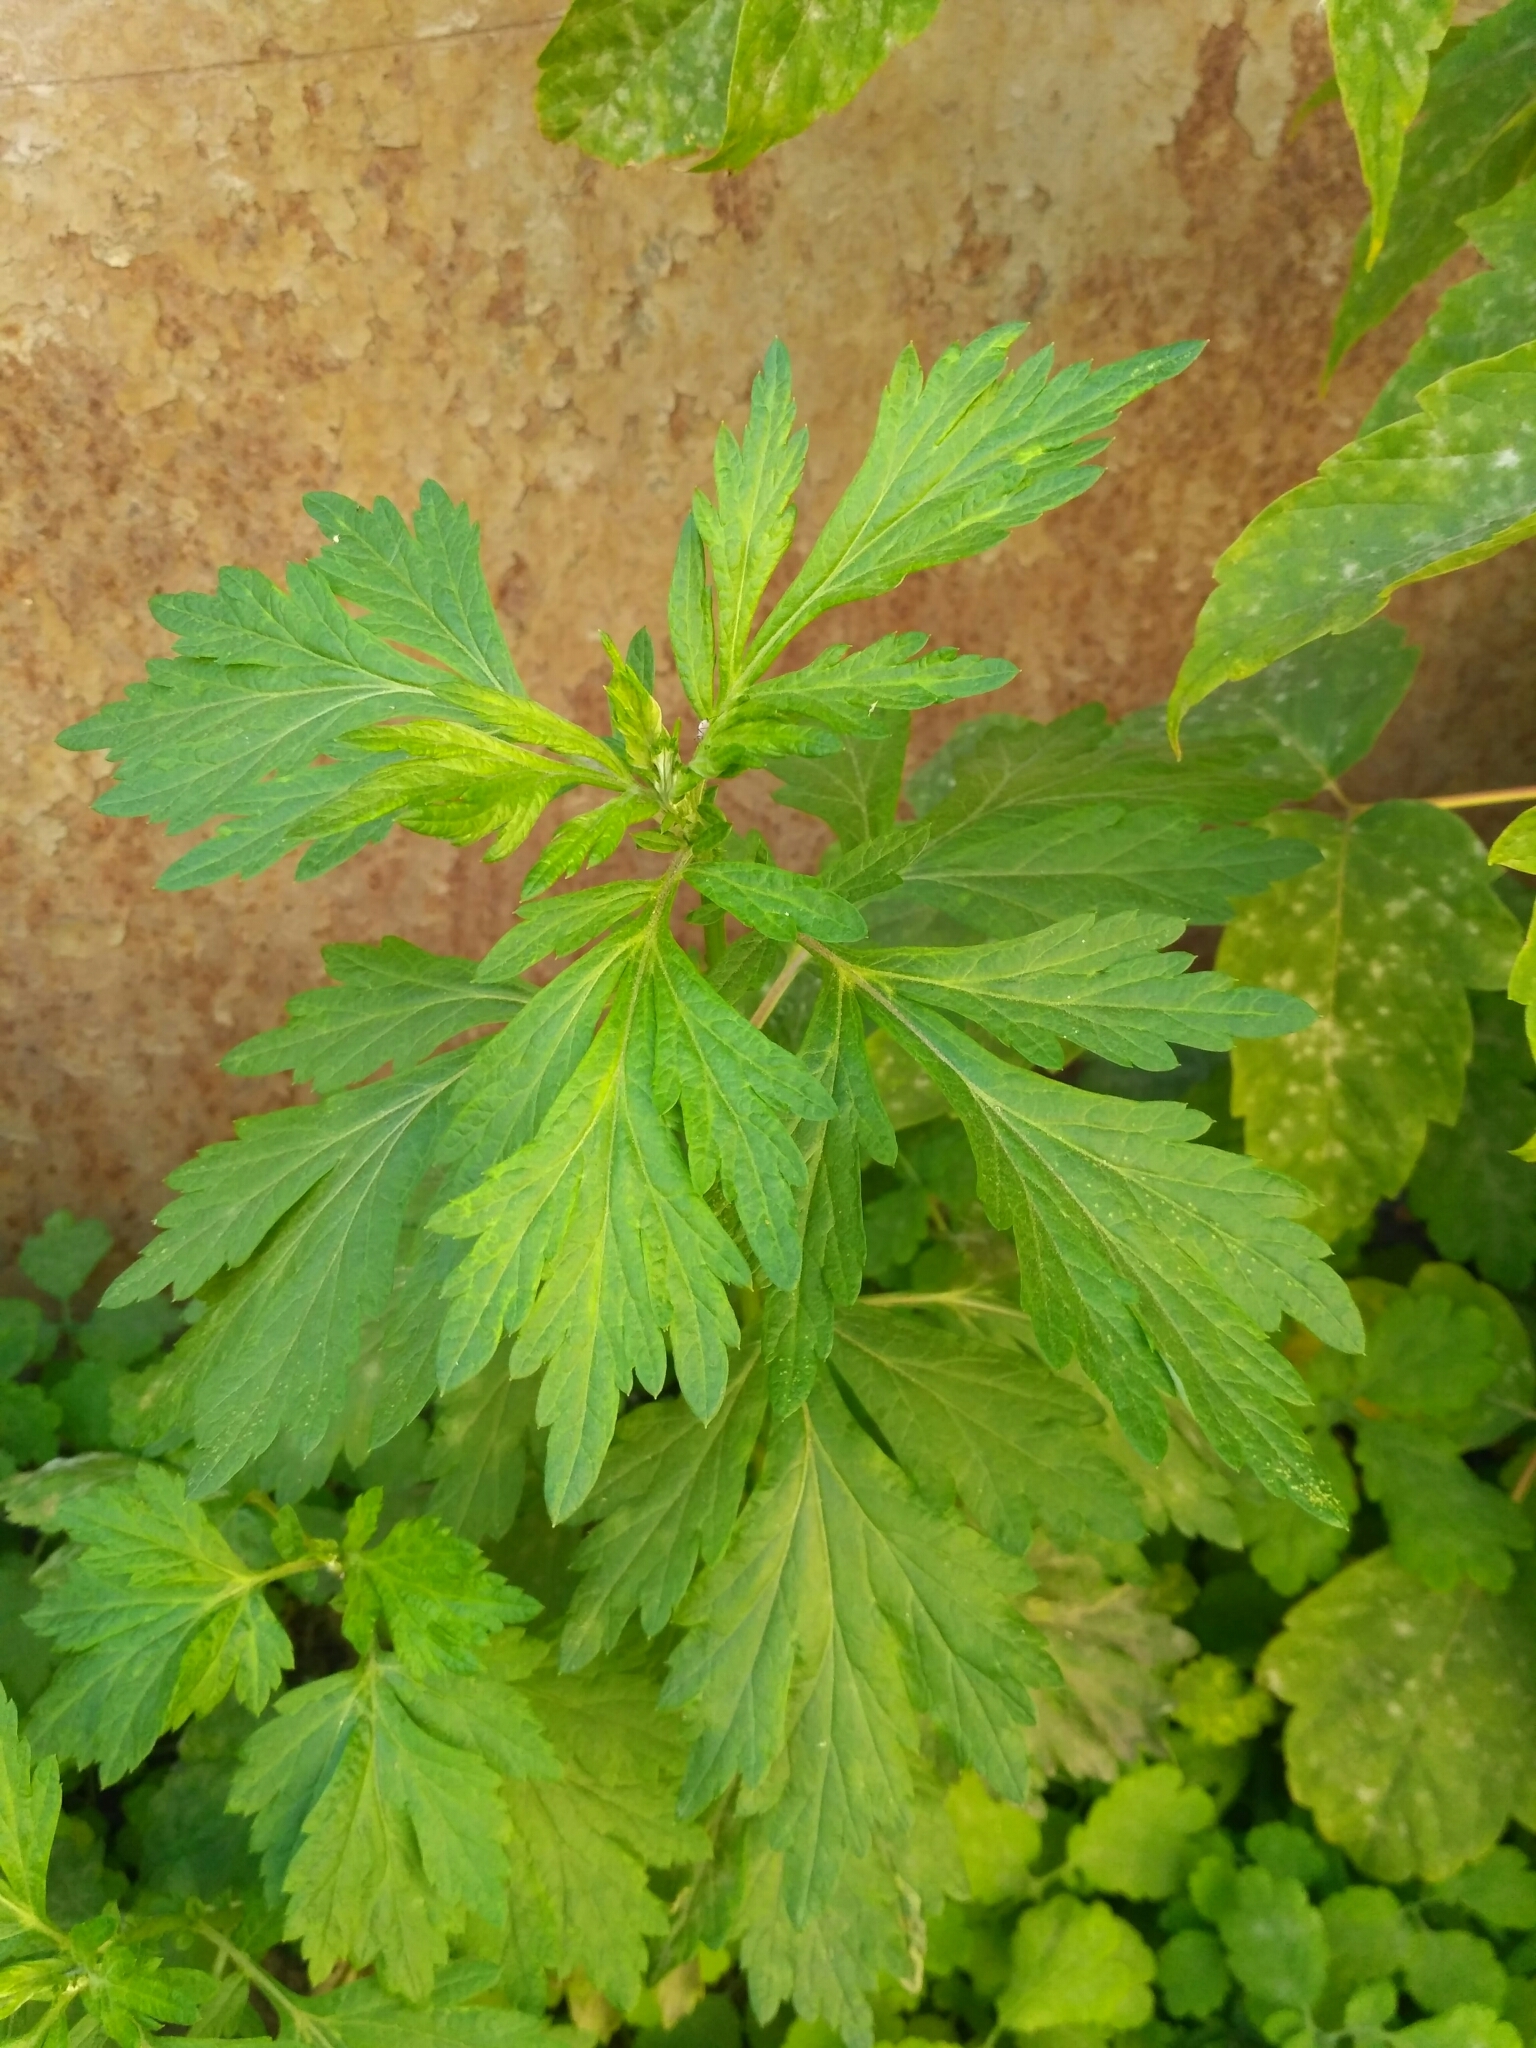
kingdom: Plantae
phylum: Tracheophyta
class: Magnoliopsida
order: Asterales
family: Asteraceae
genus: Artemisia
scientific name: Artemisia vulgaris
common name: Mugwort
